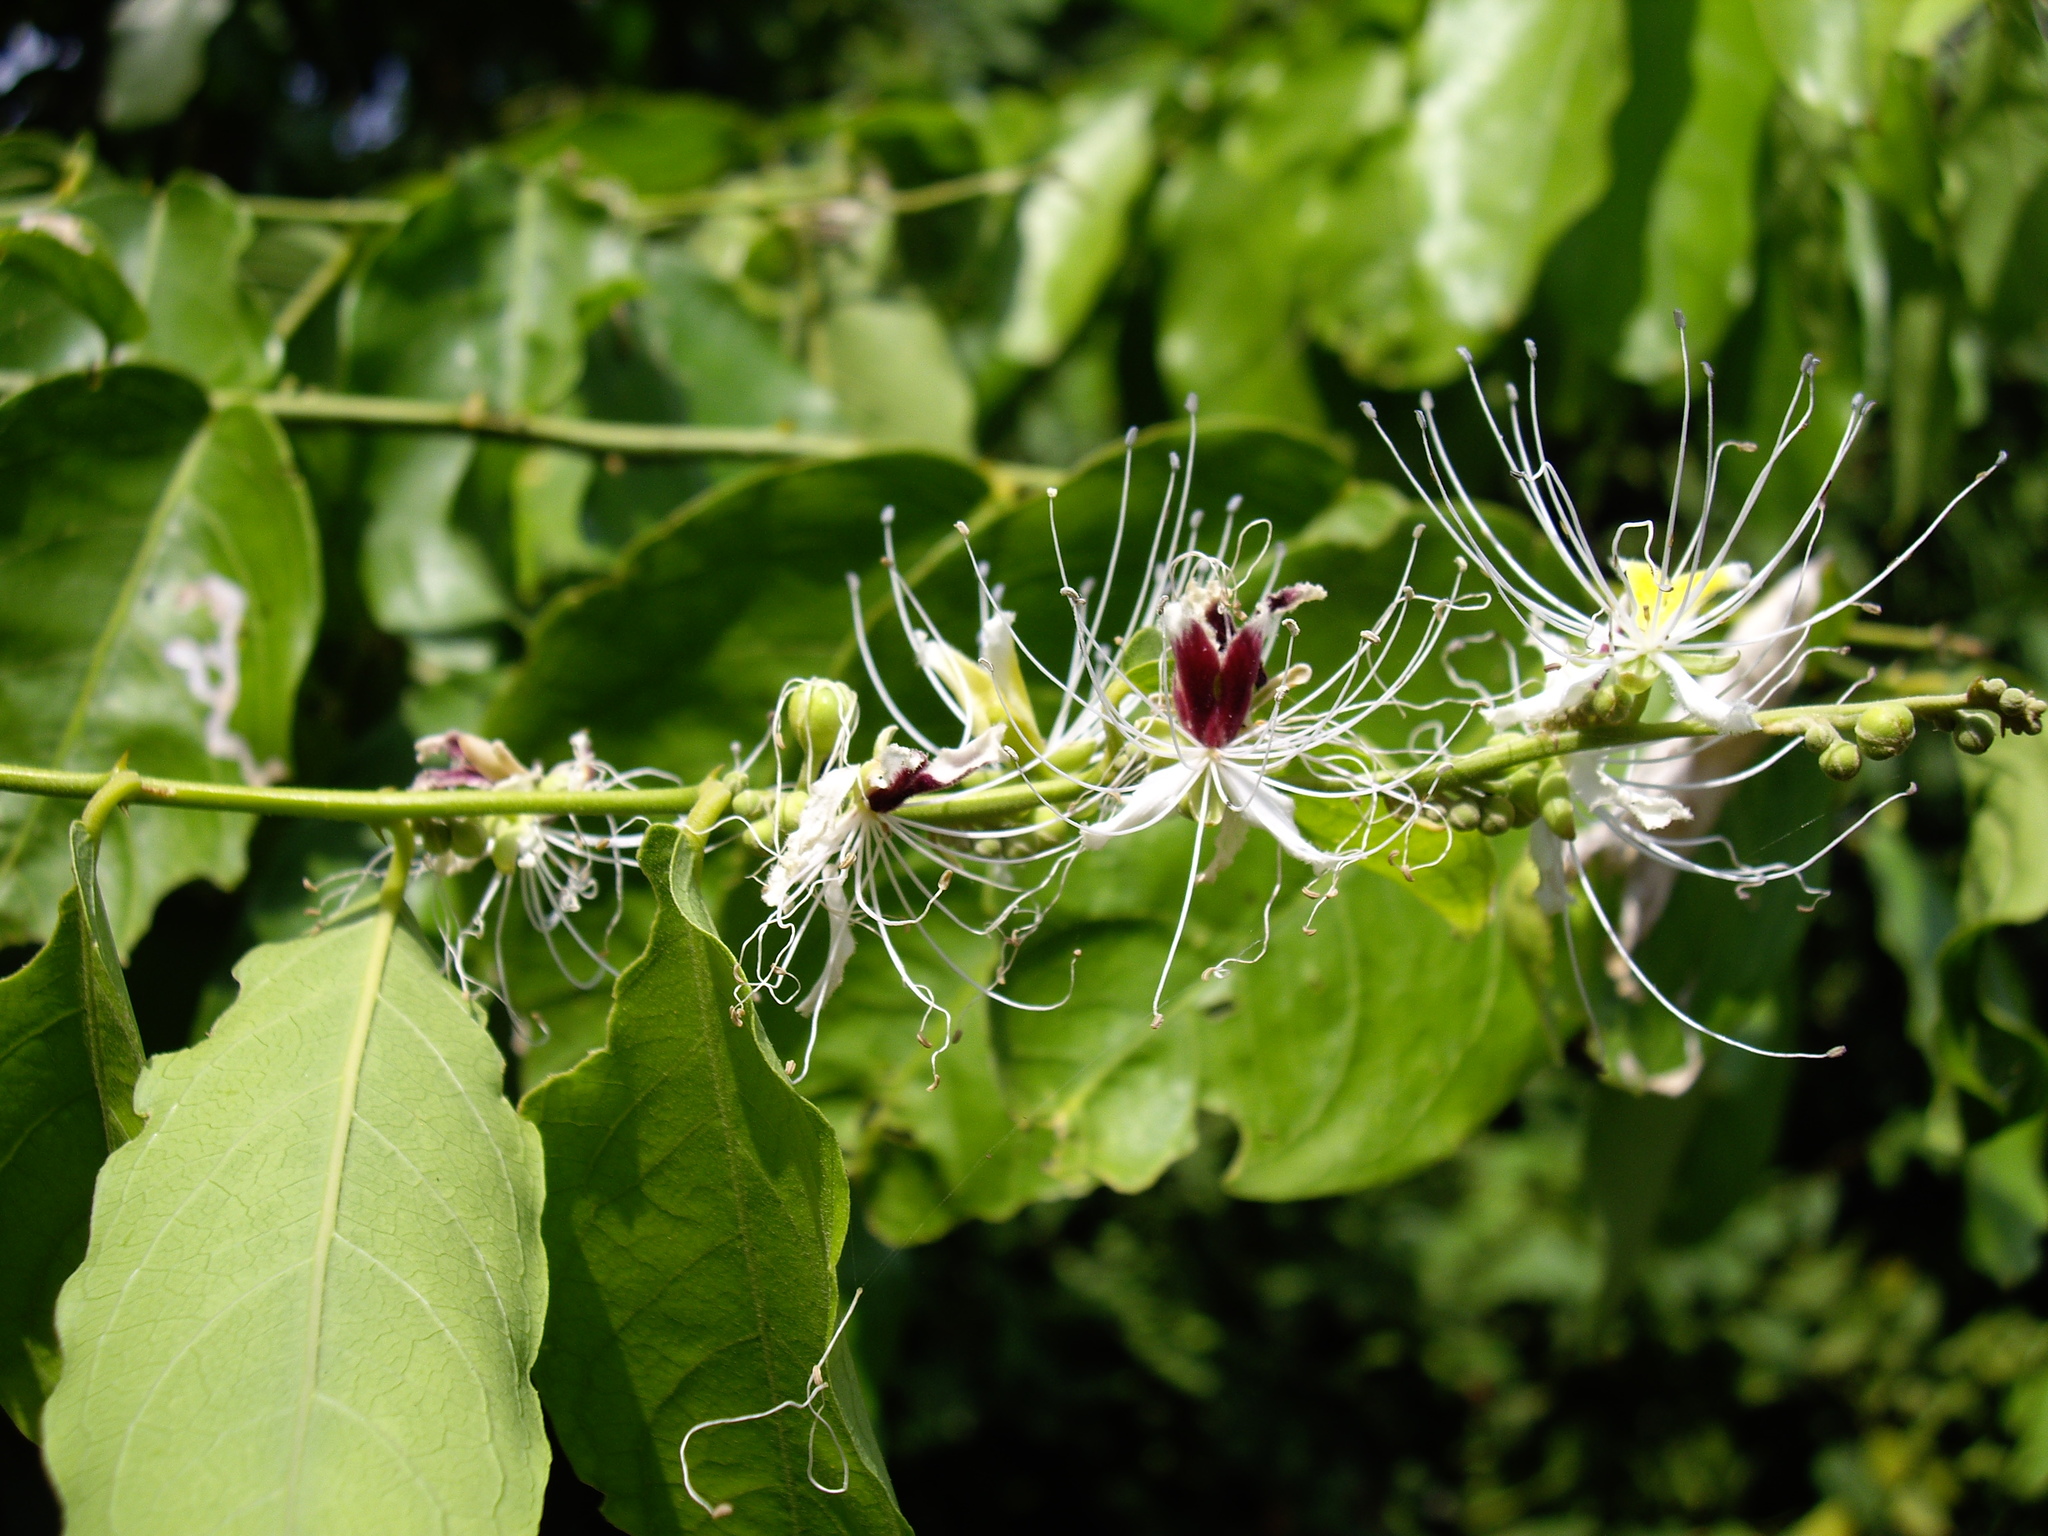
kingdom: Plantae
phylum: Tracheophyta
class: Magnoliopsida
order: Brassicales
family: Capparaceae
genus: Capparis
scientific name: Capparis micracantha
